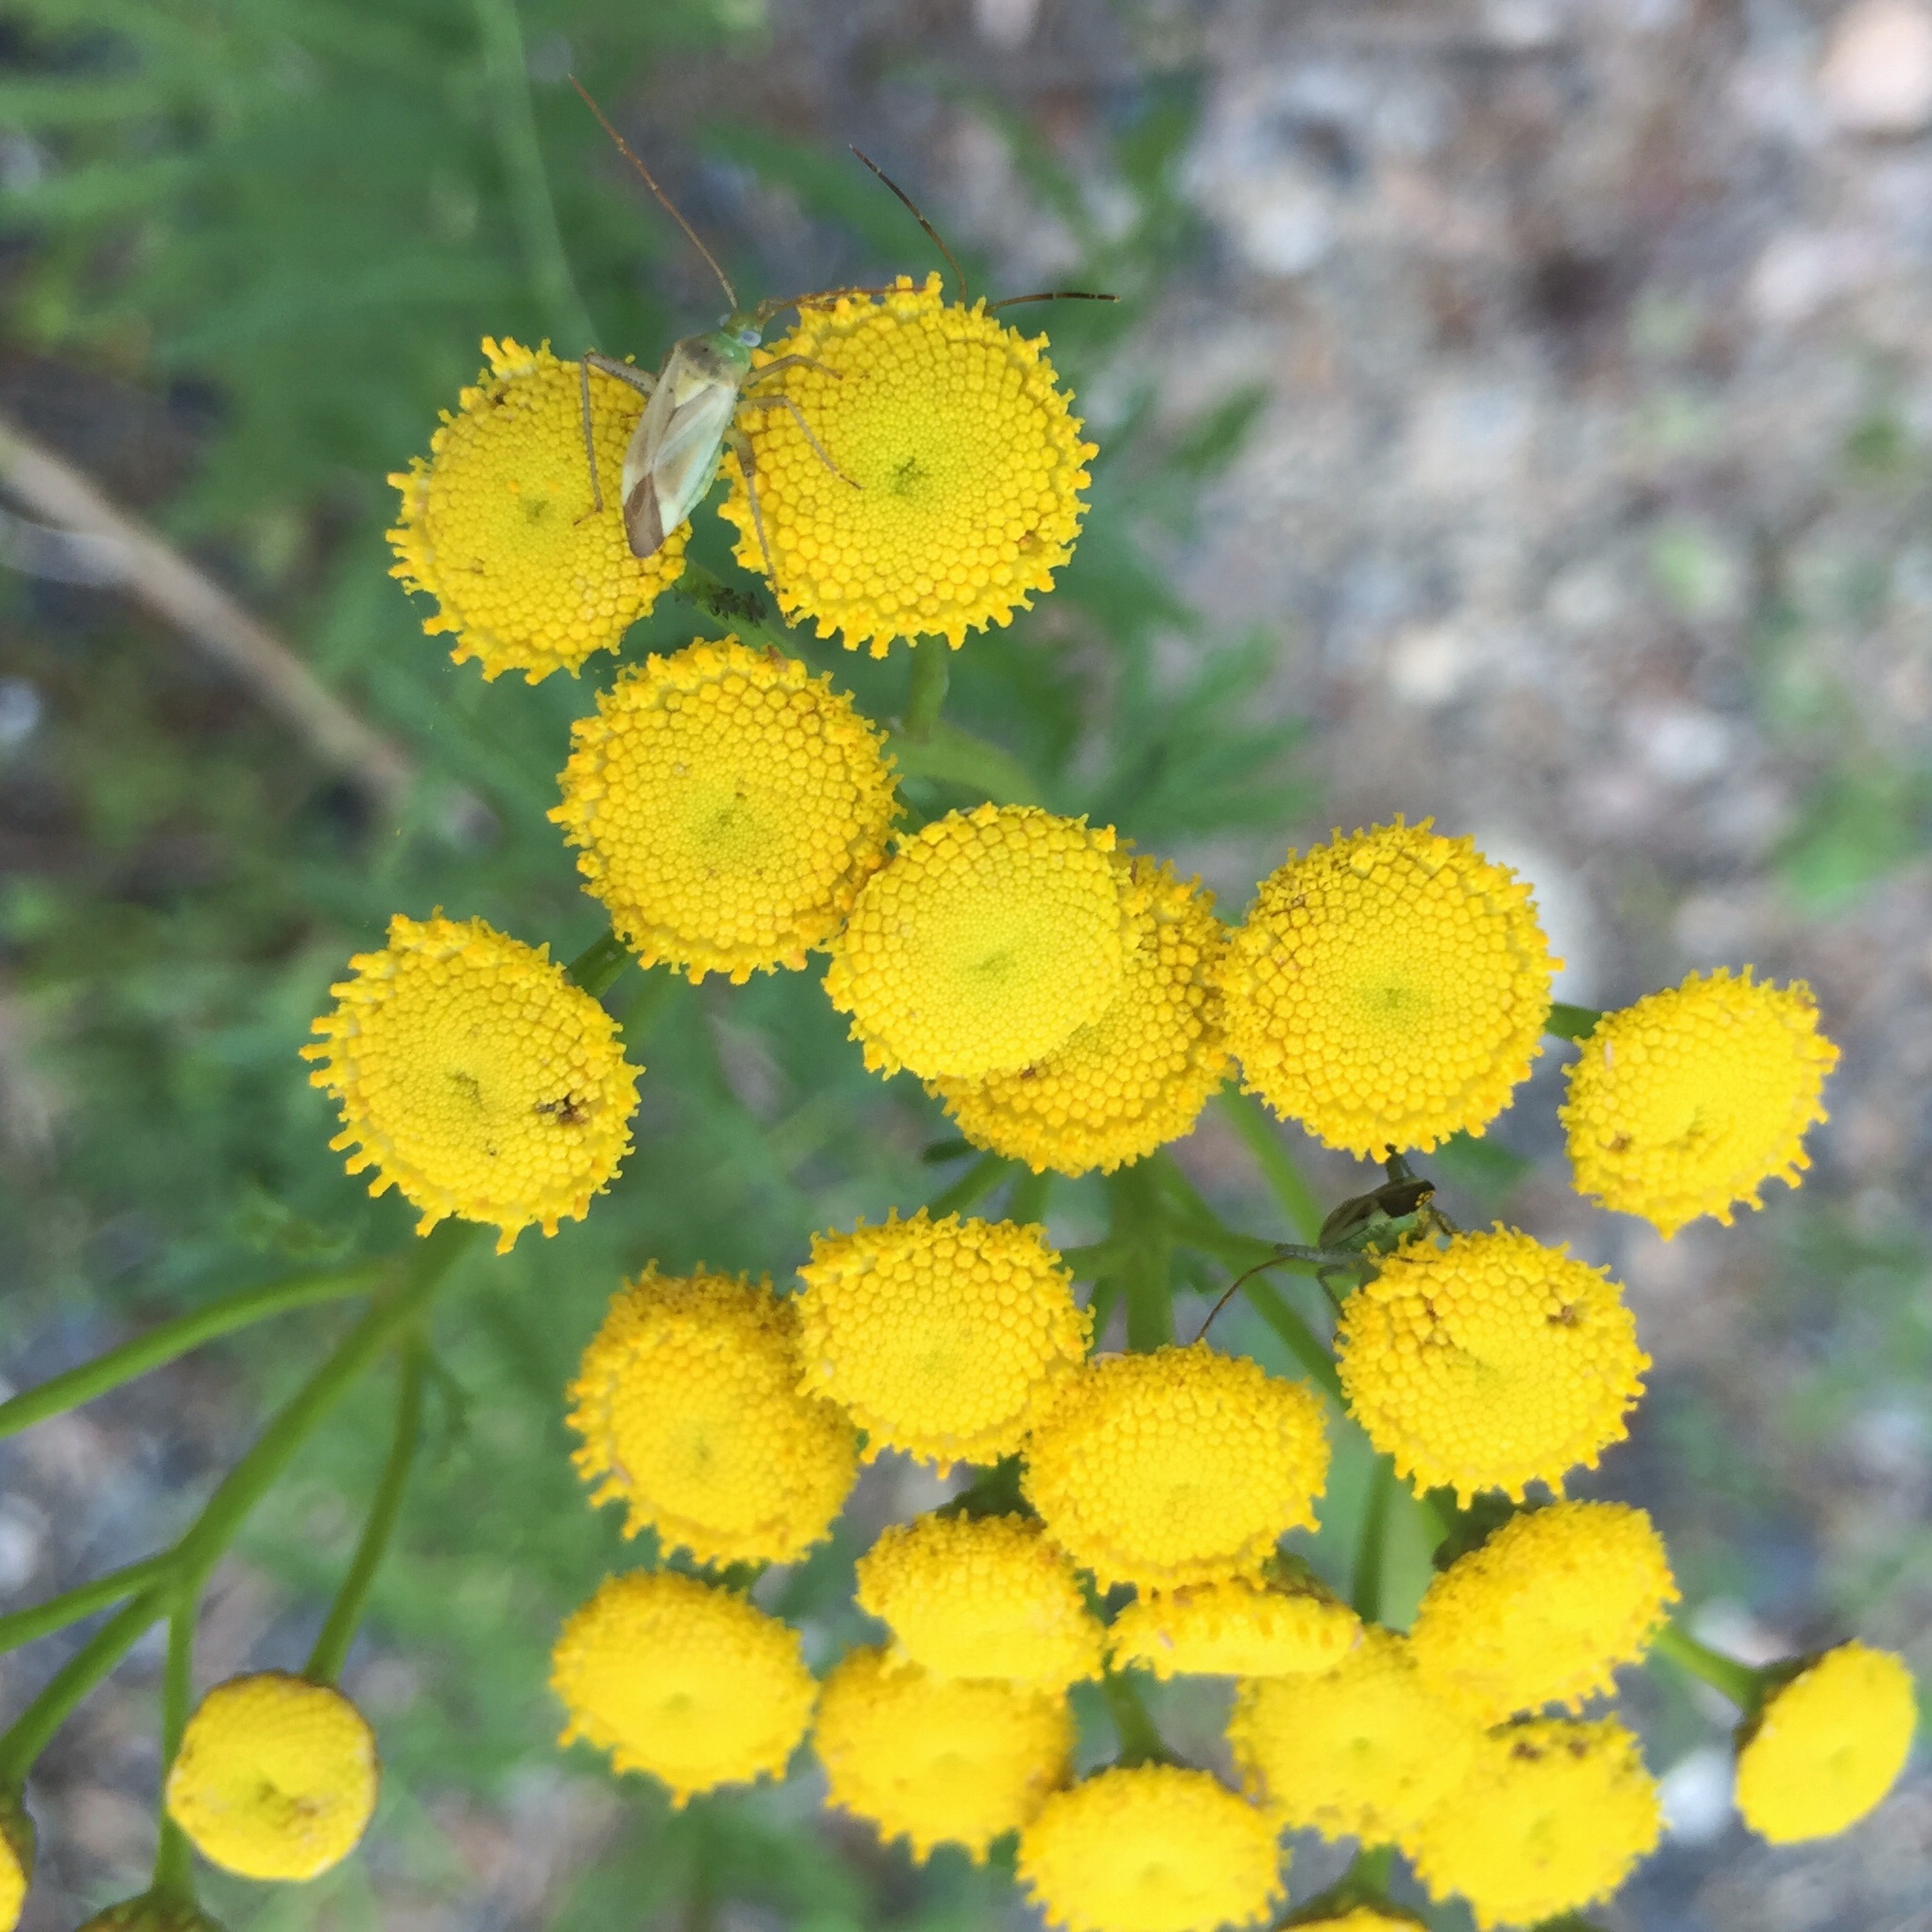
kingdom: Animalia
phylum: Arthropoda
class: Insecta
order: Hemiptera
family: Miridae
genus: Adelphocoris
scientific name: Adelphocoris lineolatus
